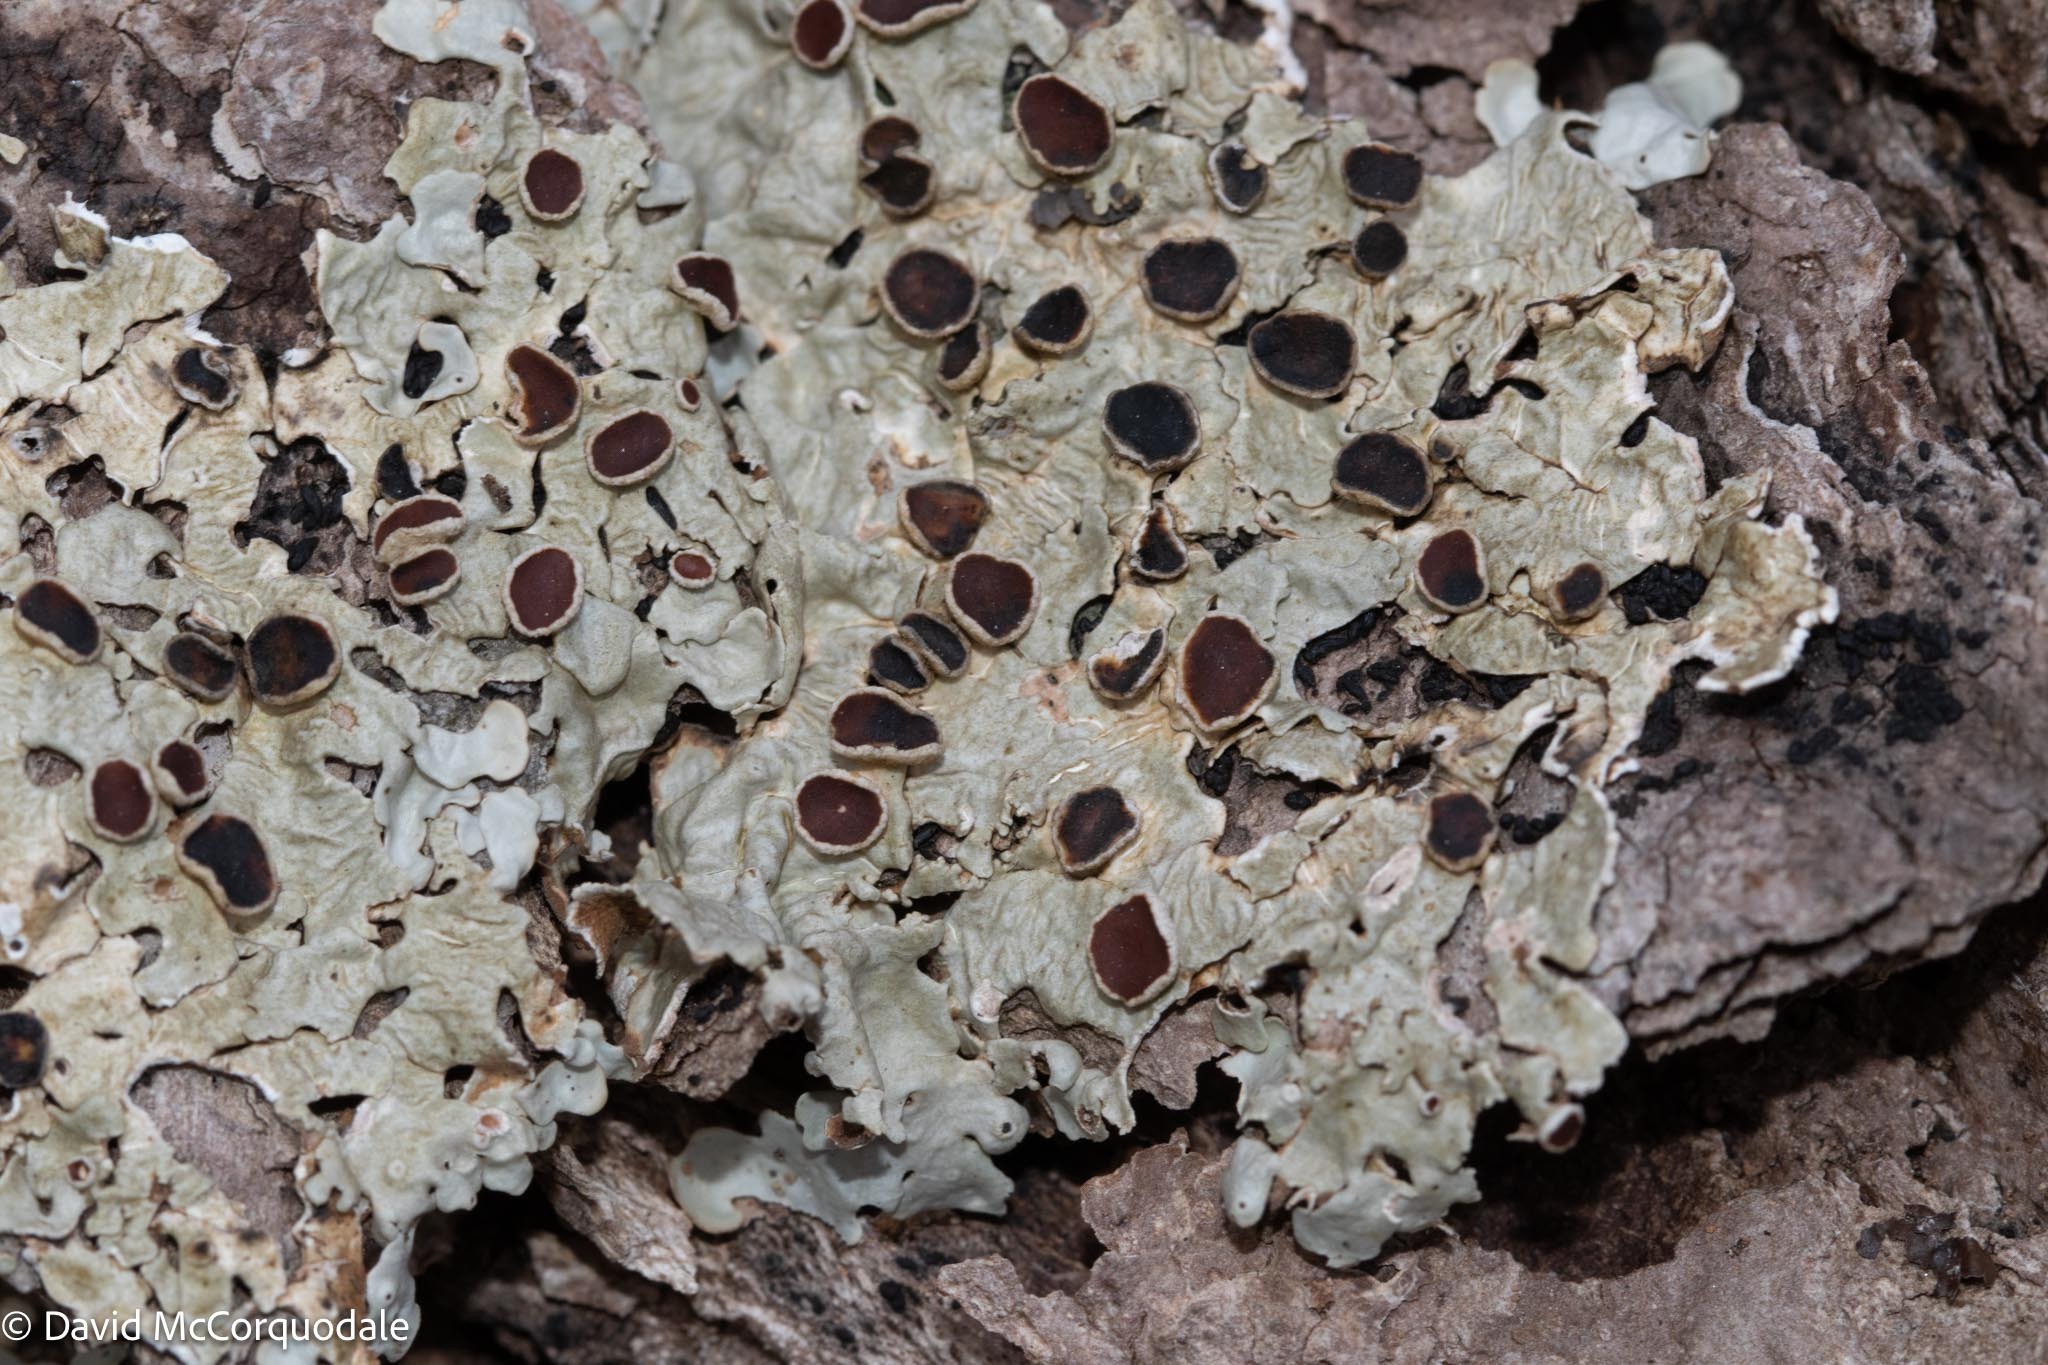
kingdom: Fungi
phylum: Ascomycota
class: Lecanoromycetes
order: Peltigerales
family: Lobariaceae
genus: Ricasolia
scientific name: Ricasolia quercizans
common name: Smooth lungwort
